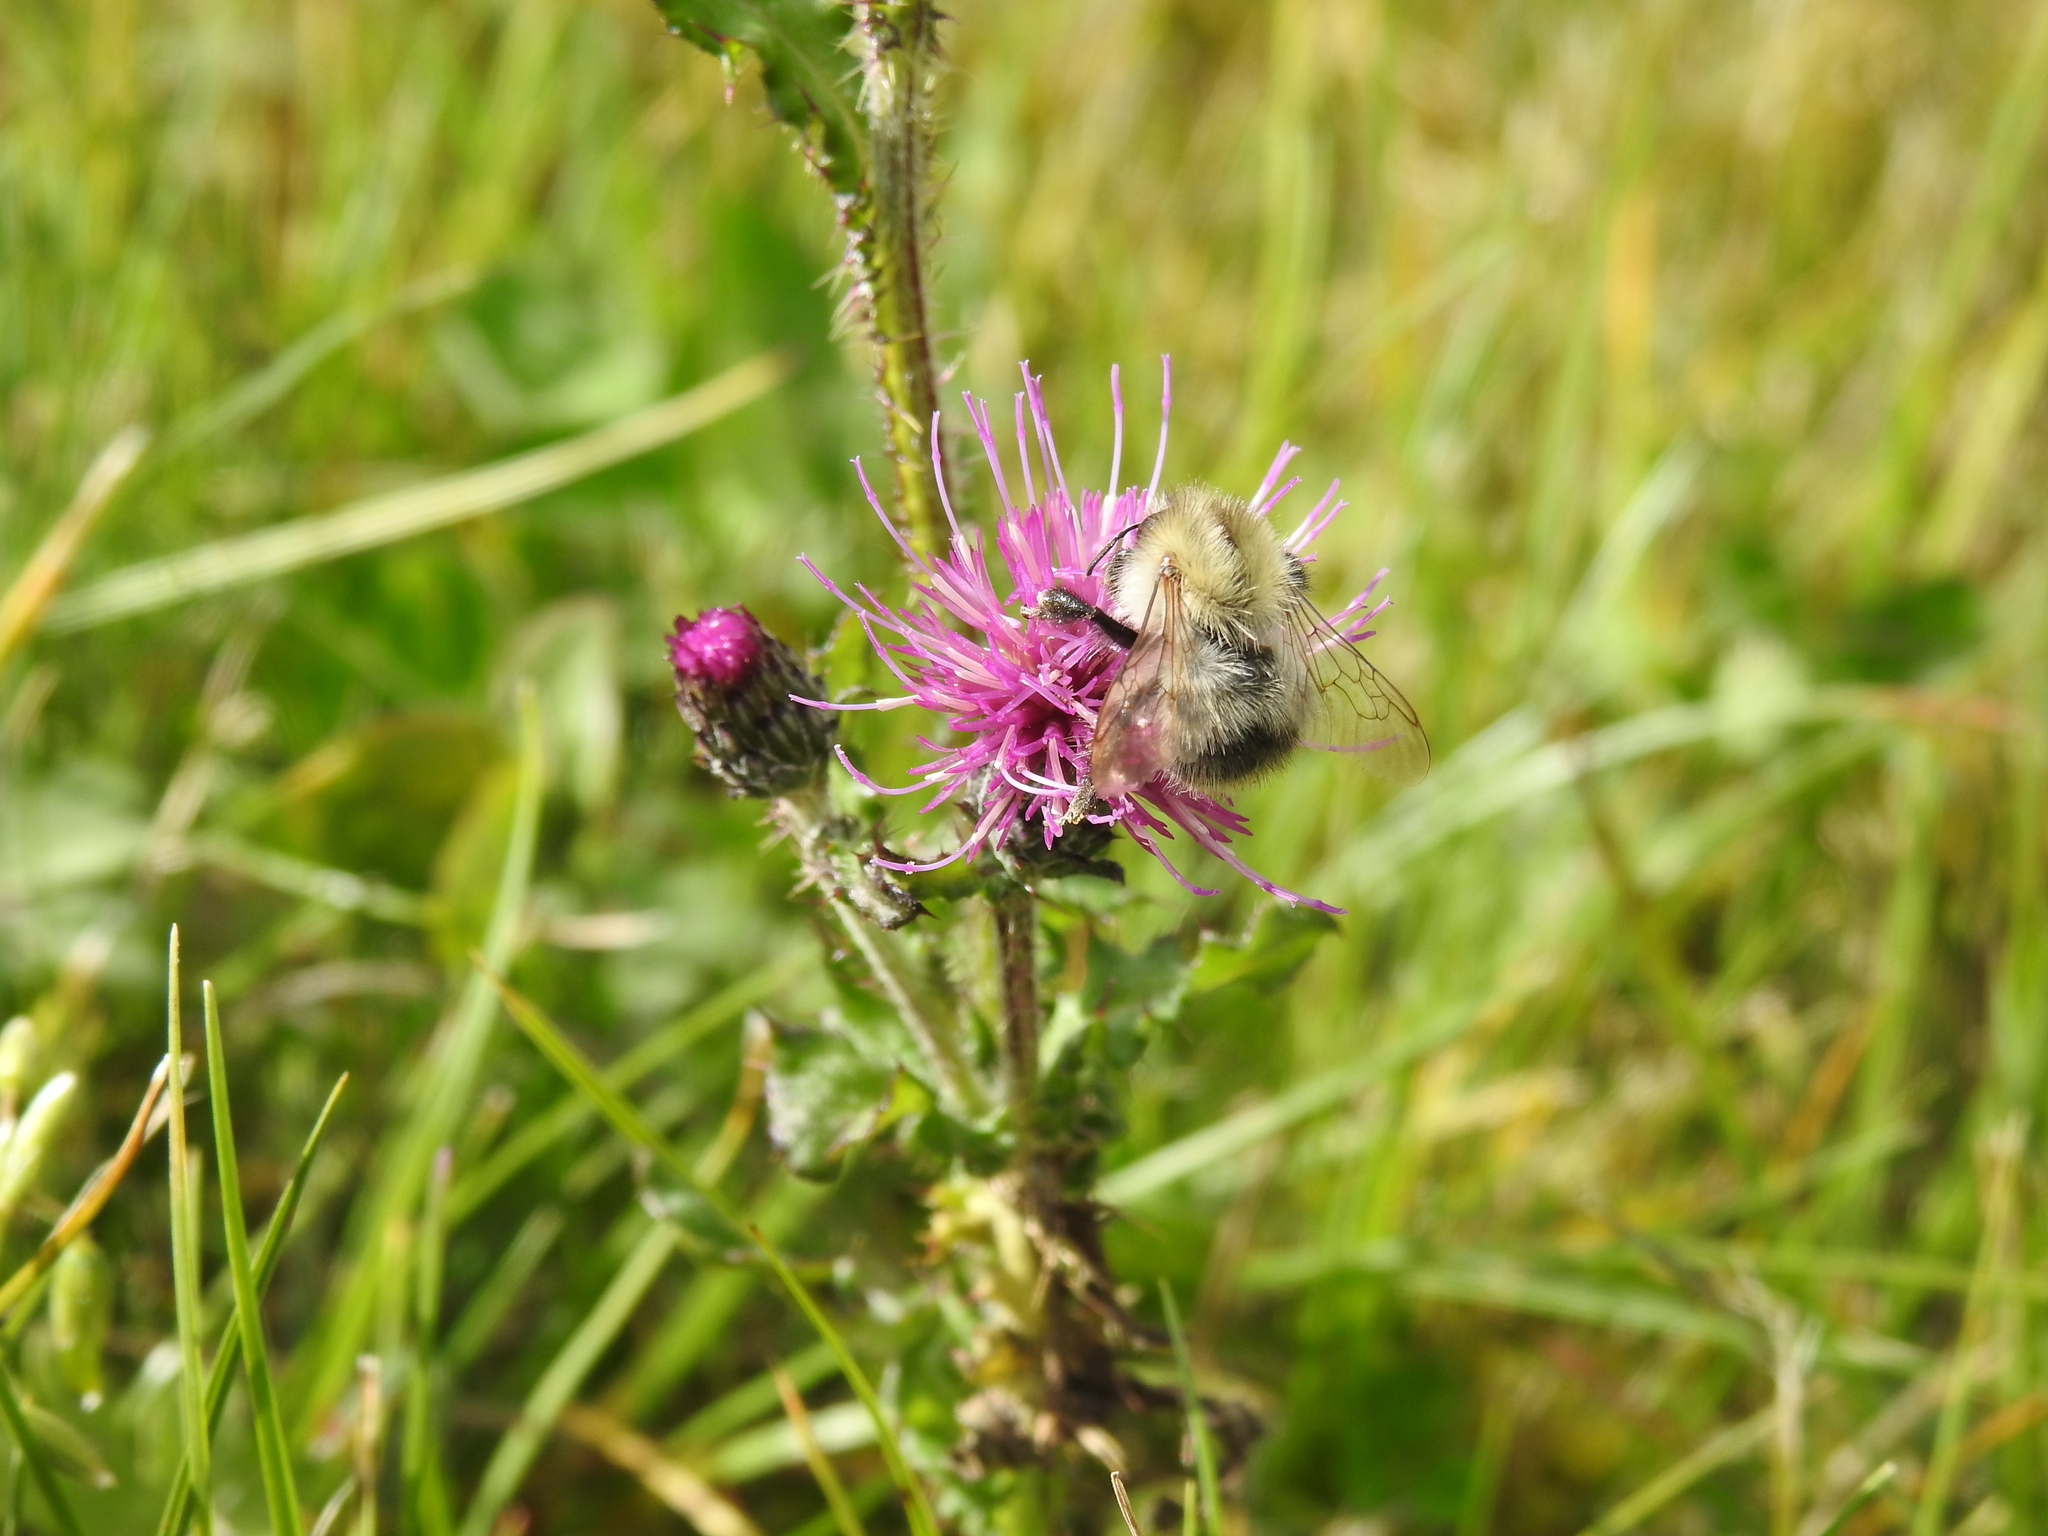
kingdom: Animalia
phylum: Arthropoda
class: Insecta
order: Hymenoptera
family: Apidae
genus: Bombus
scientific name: Bombus pascuorum
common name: Common carder bee
